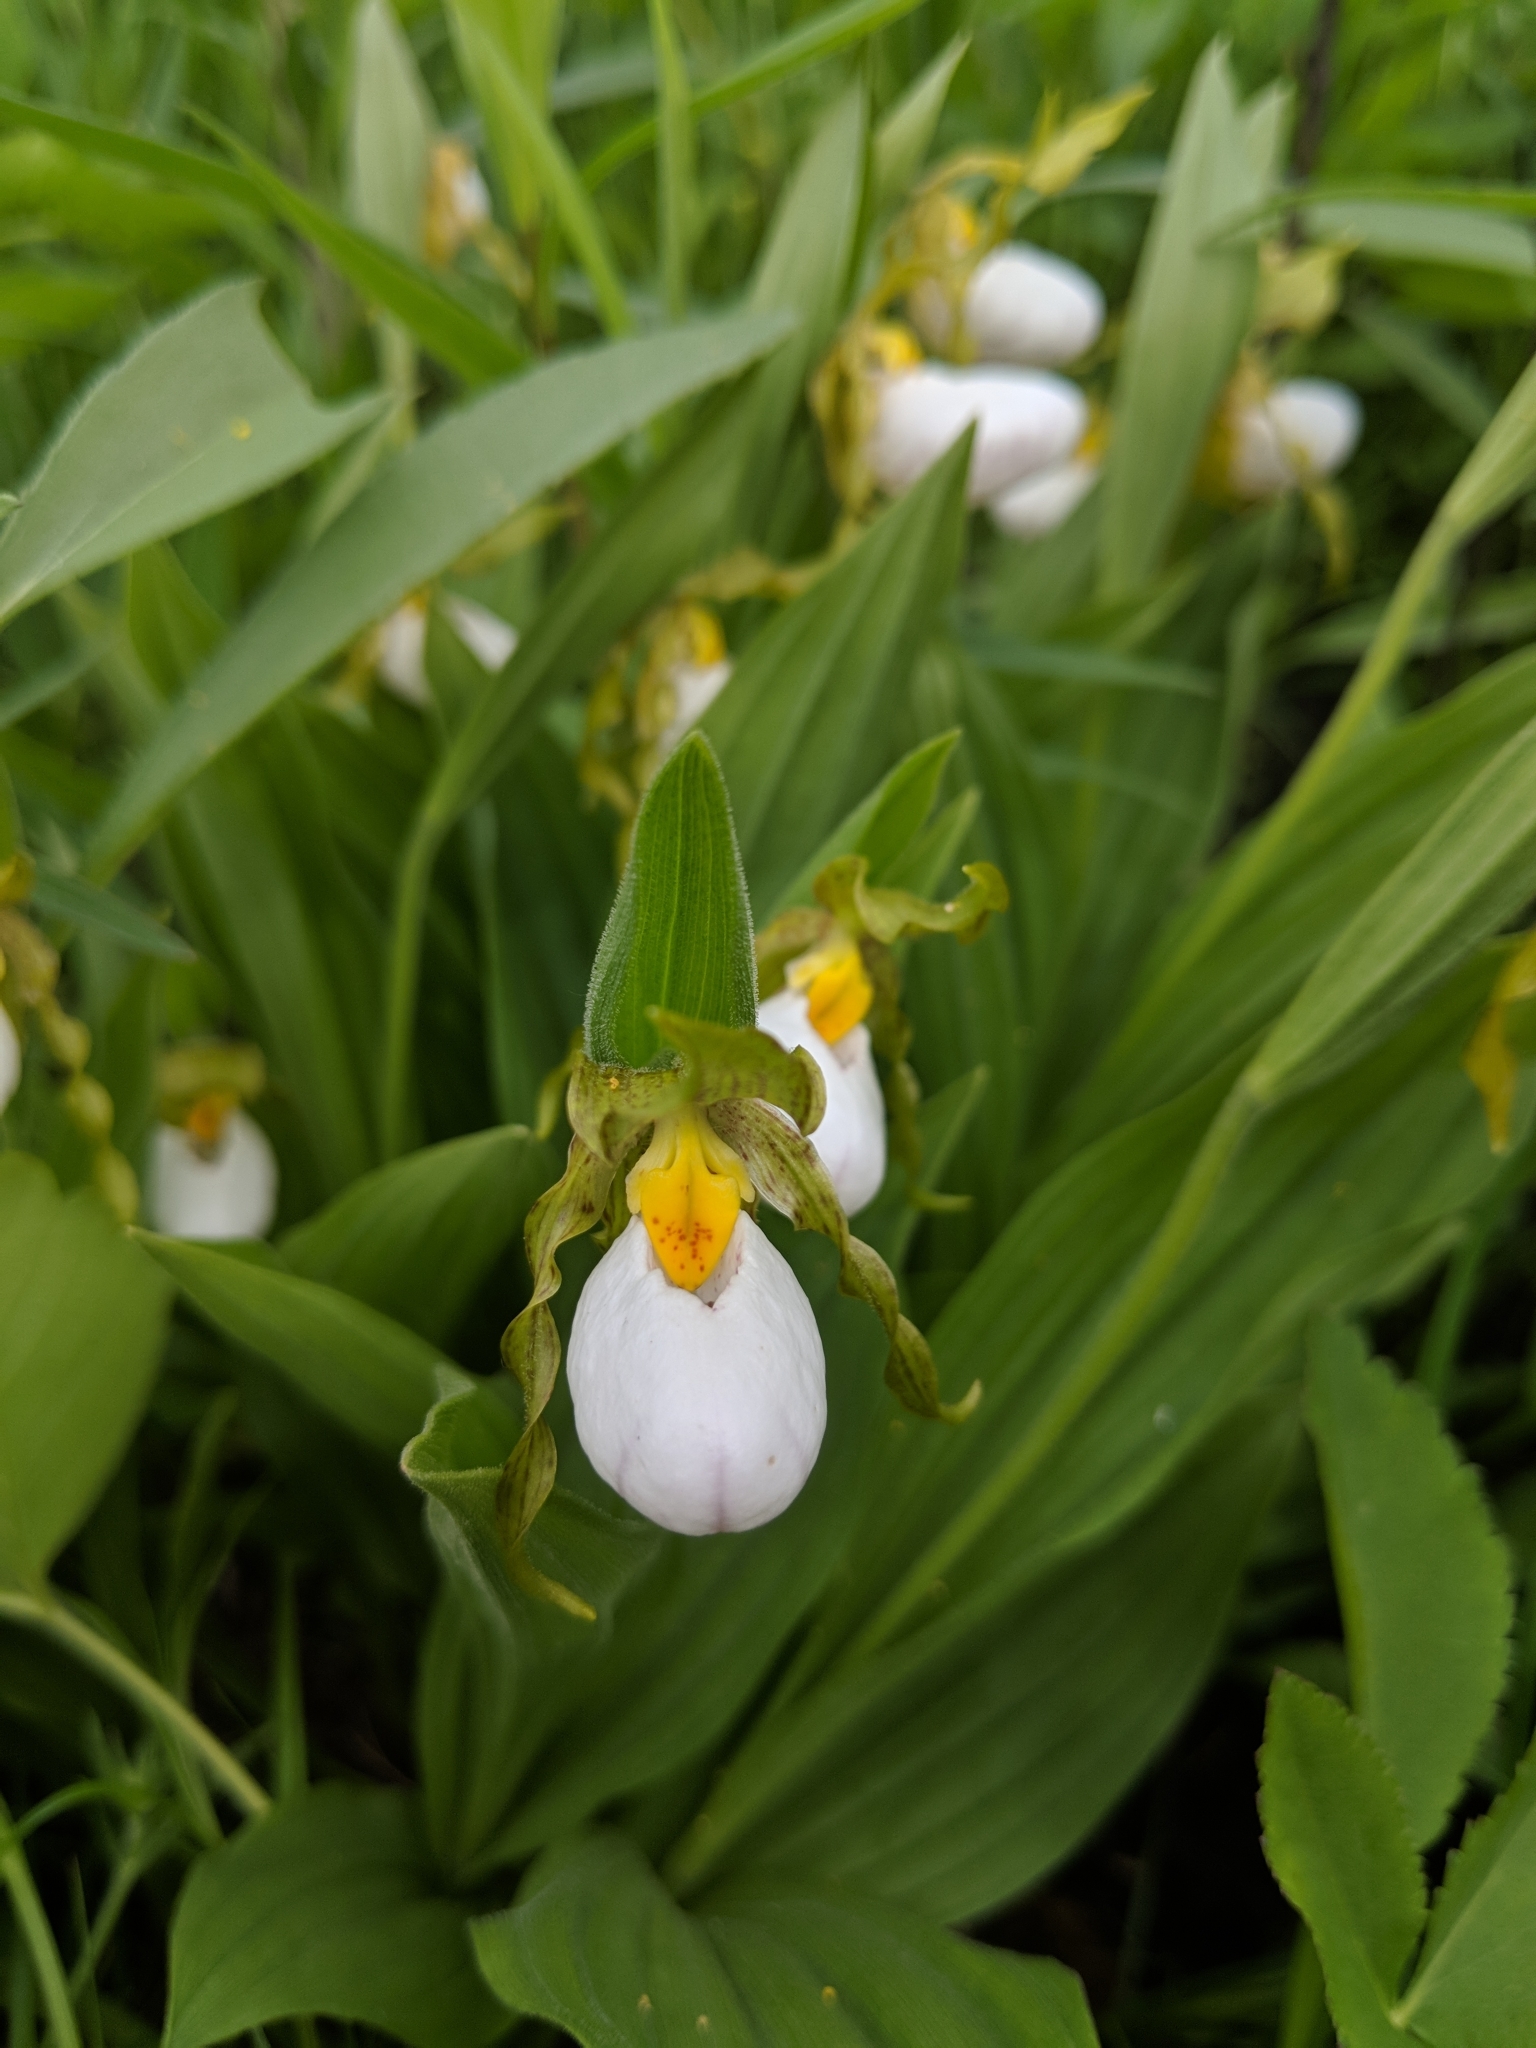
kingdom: Plantae
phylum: Tracheophyta
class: Liliopsida
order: Asparagales
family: Orchidaceae
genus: Cypripedium
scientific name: Cypripedium candidum
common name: White lady's-slipper
